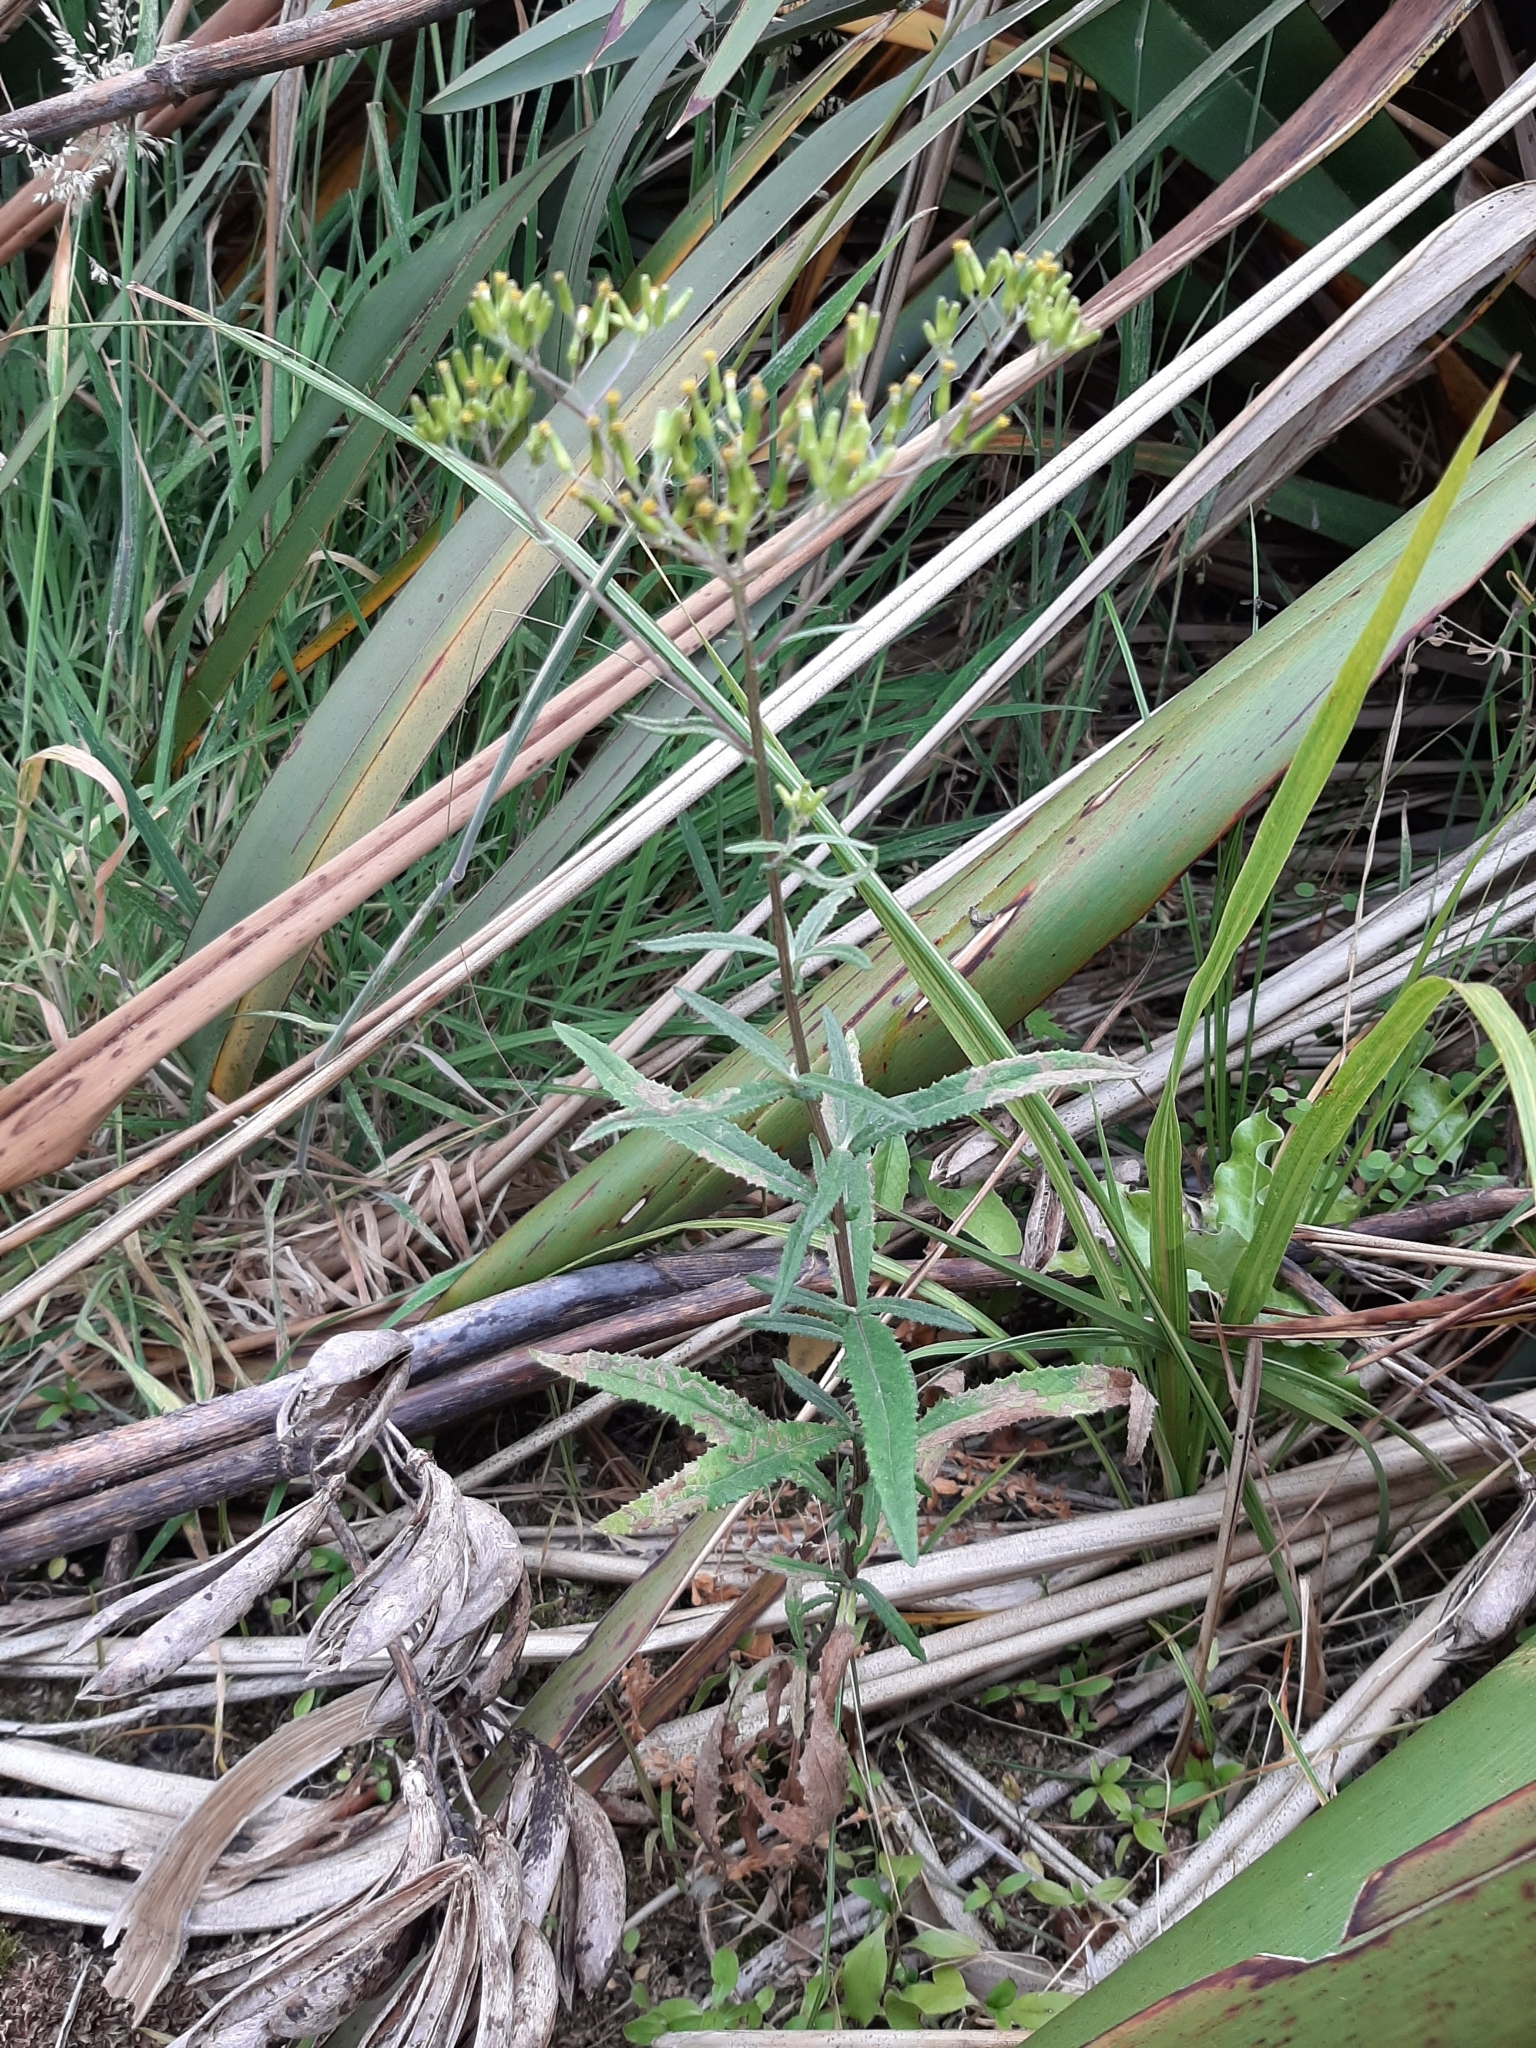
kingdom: Plantae
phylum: Tracheophyta
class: Magnoliopsida
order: Asterales
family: Asteraceae
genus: Senecio
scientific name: Senecio minimus
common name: Toothed fireweed
